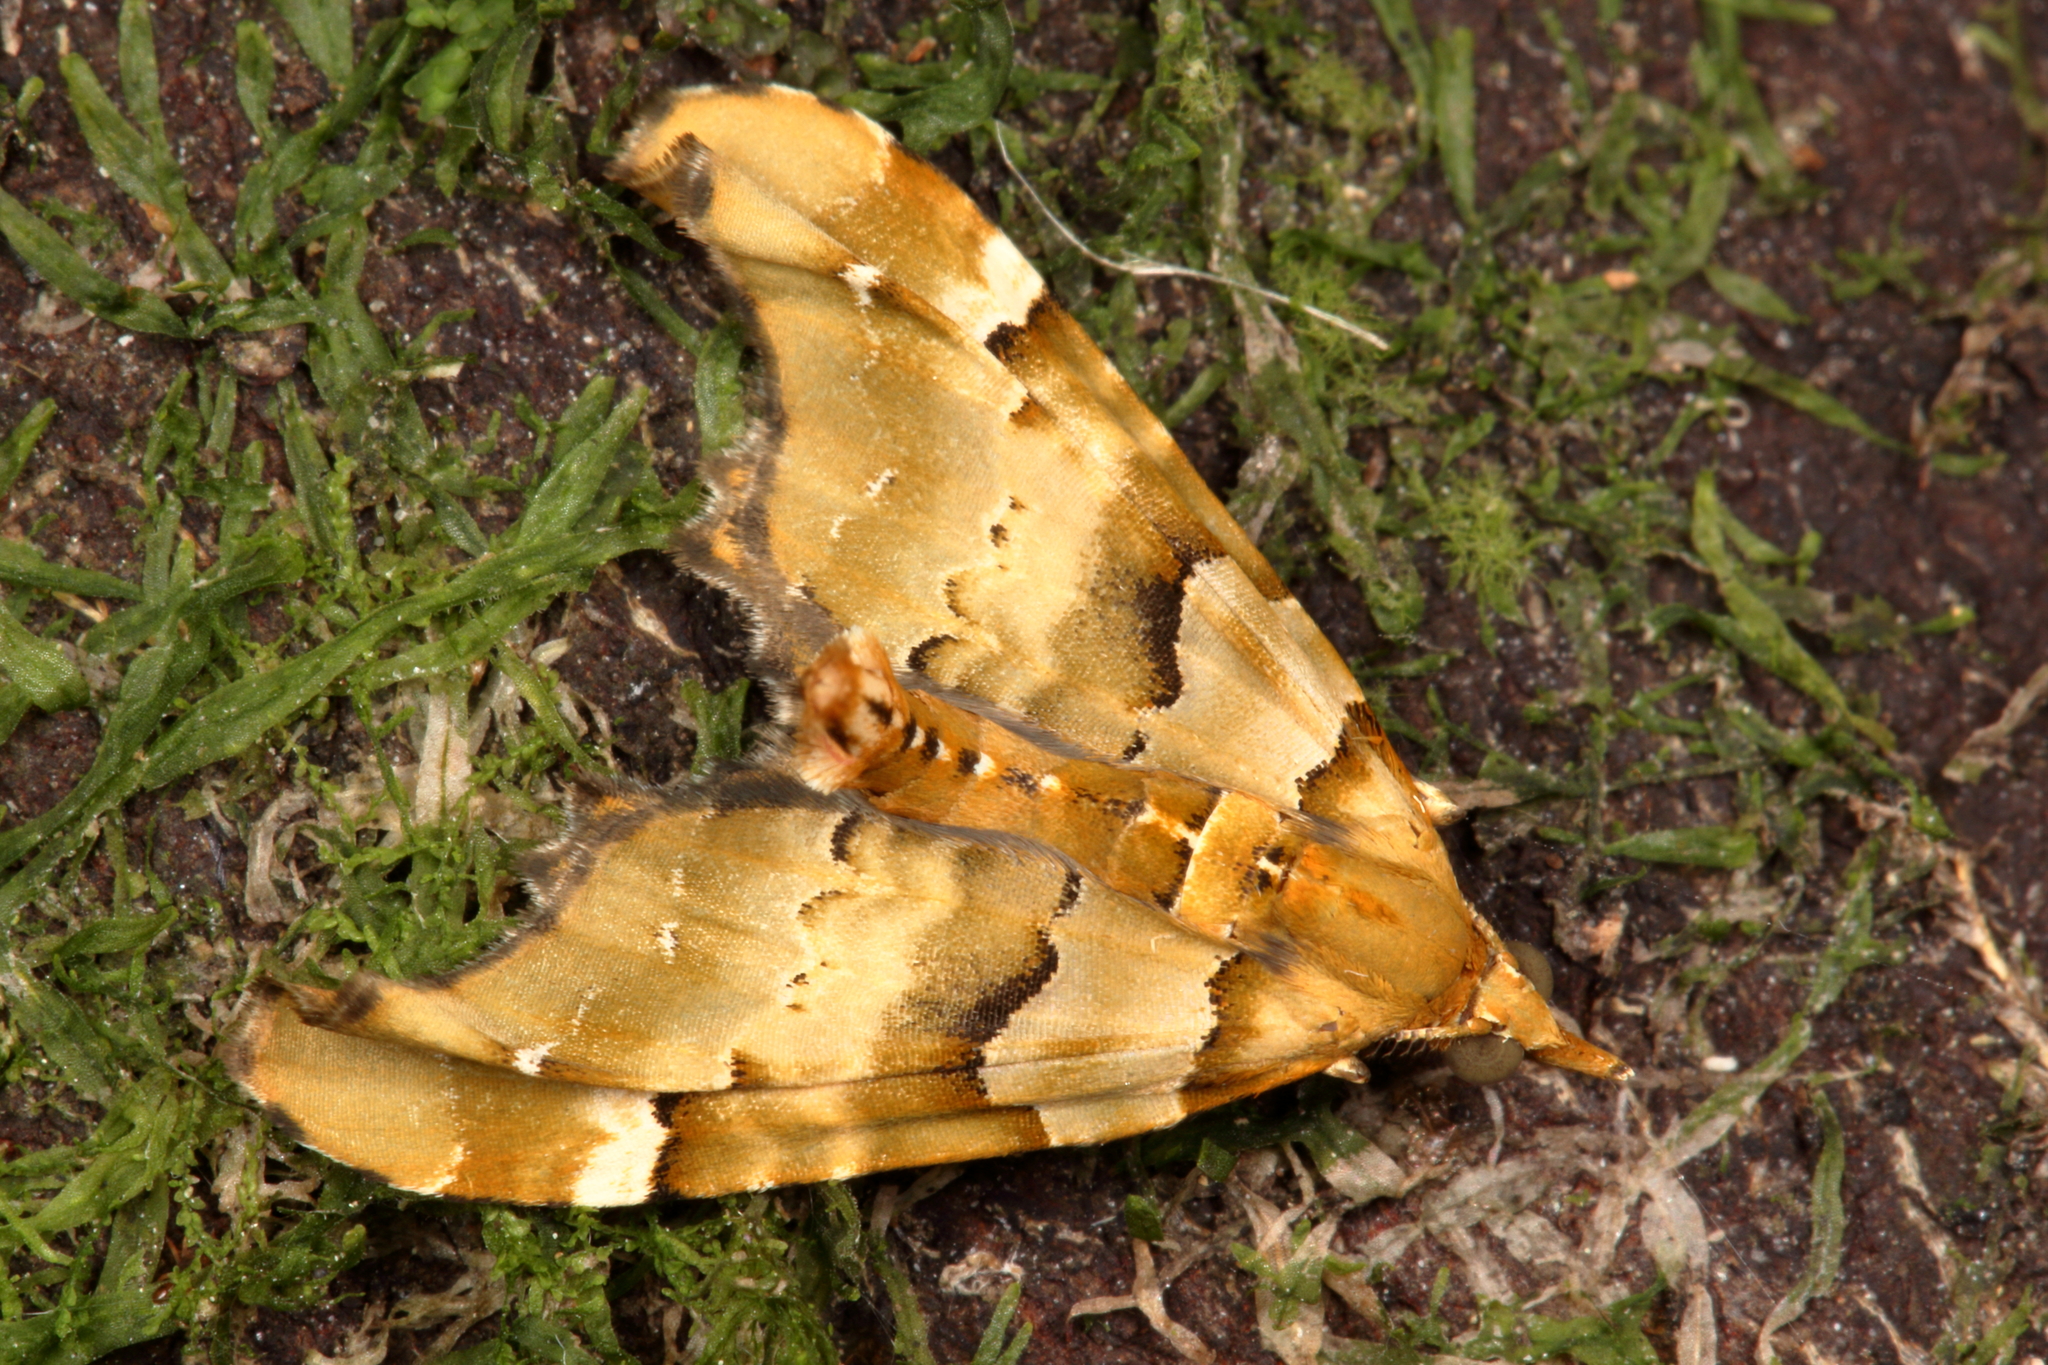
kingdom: Animalia
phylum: Arthropoda
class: Insecta
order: Lepidoptera
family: Geometridae
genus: Elvia
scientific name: Elvia glaucata
